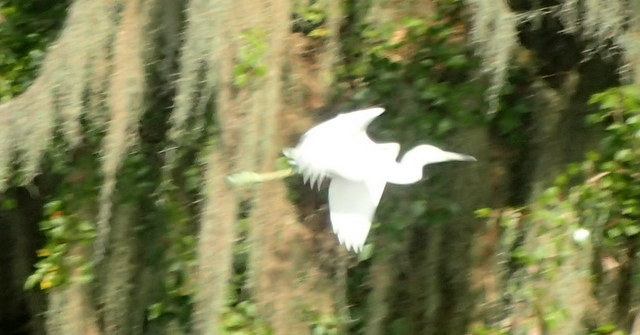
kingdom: Animalia
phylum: Chordata
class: Aves
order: Pelecaniformes
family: Ardeidae
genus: Egretta
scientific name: Egretta caerulea
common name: Little blue heron
